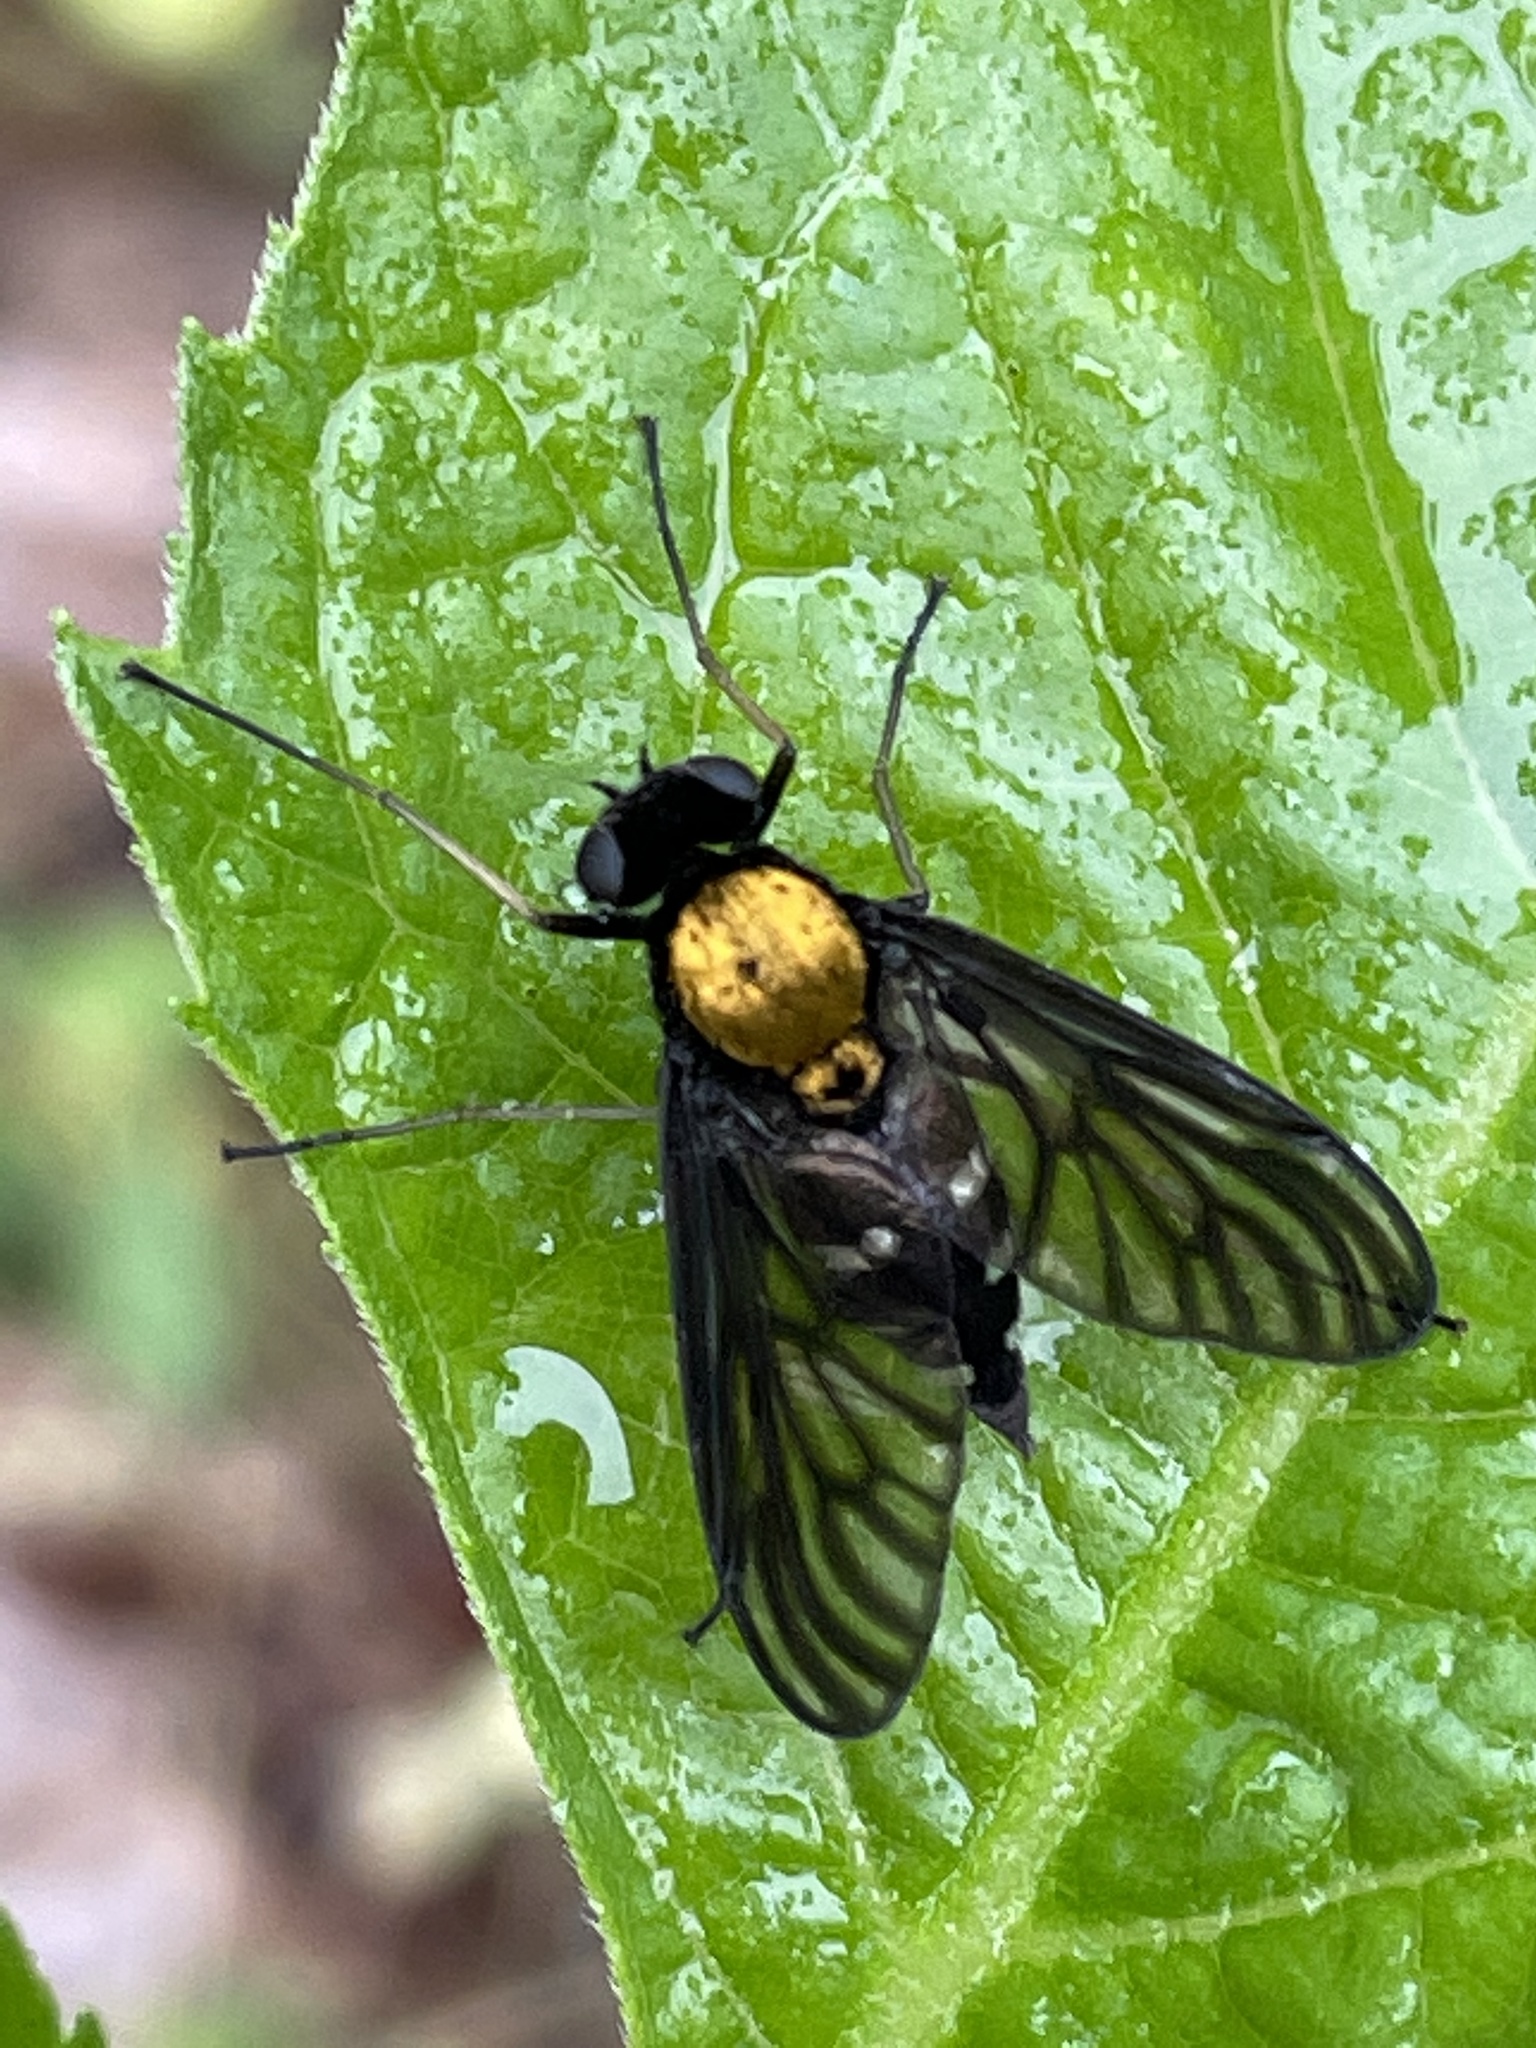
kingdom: Animalia
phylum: Arthropoda
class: Insecta
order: Diptera
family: Rhagionidae
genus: Chrysopilus
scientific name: Chrysopilus thoracicus
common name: Golden-backed snipe fly
